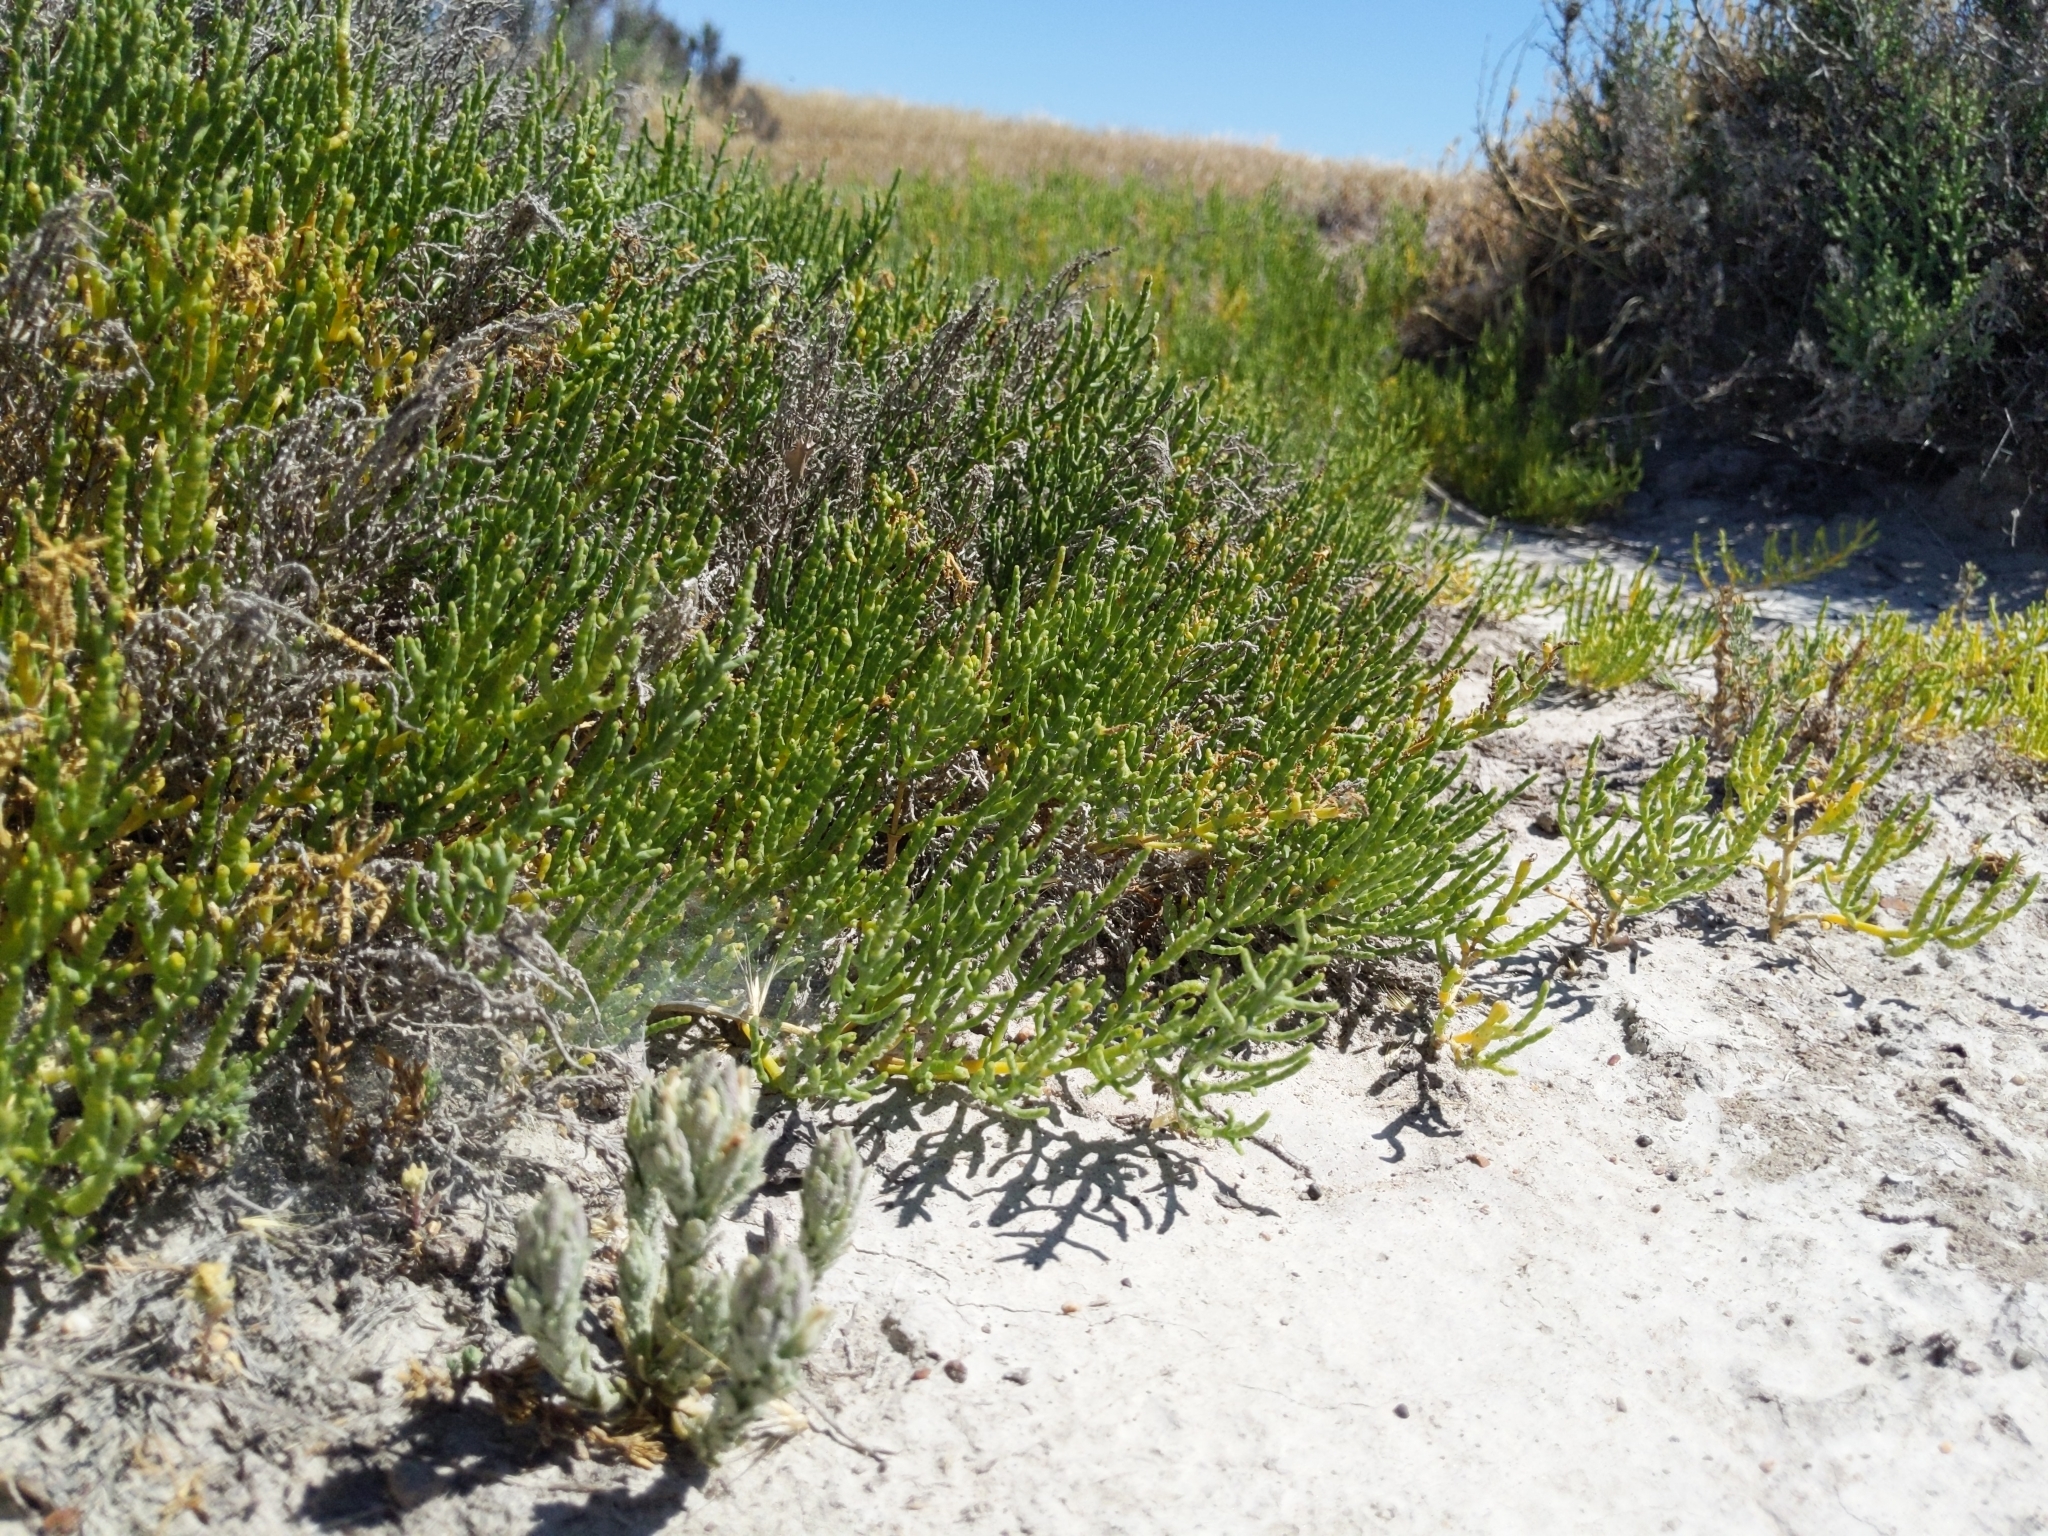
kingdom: Plantae
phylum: Tracheophyta
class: Magnoliopsida
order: Caryophyllales
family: Amaranthaceae
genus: Arthroceras
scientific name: Arthroceras subterminale
